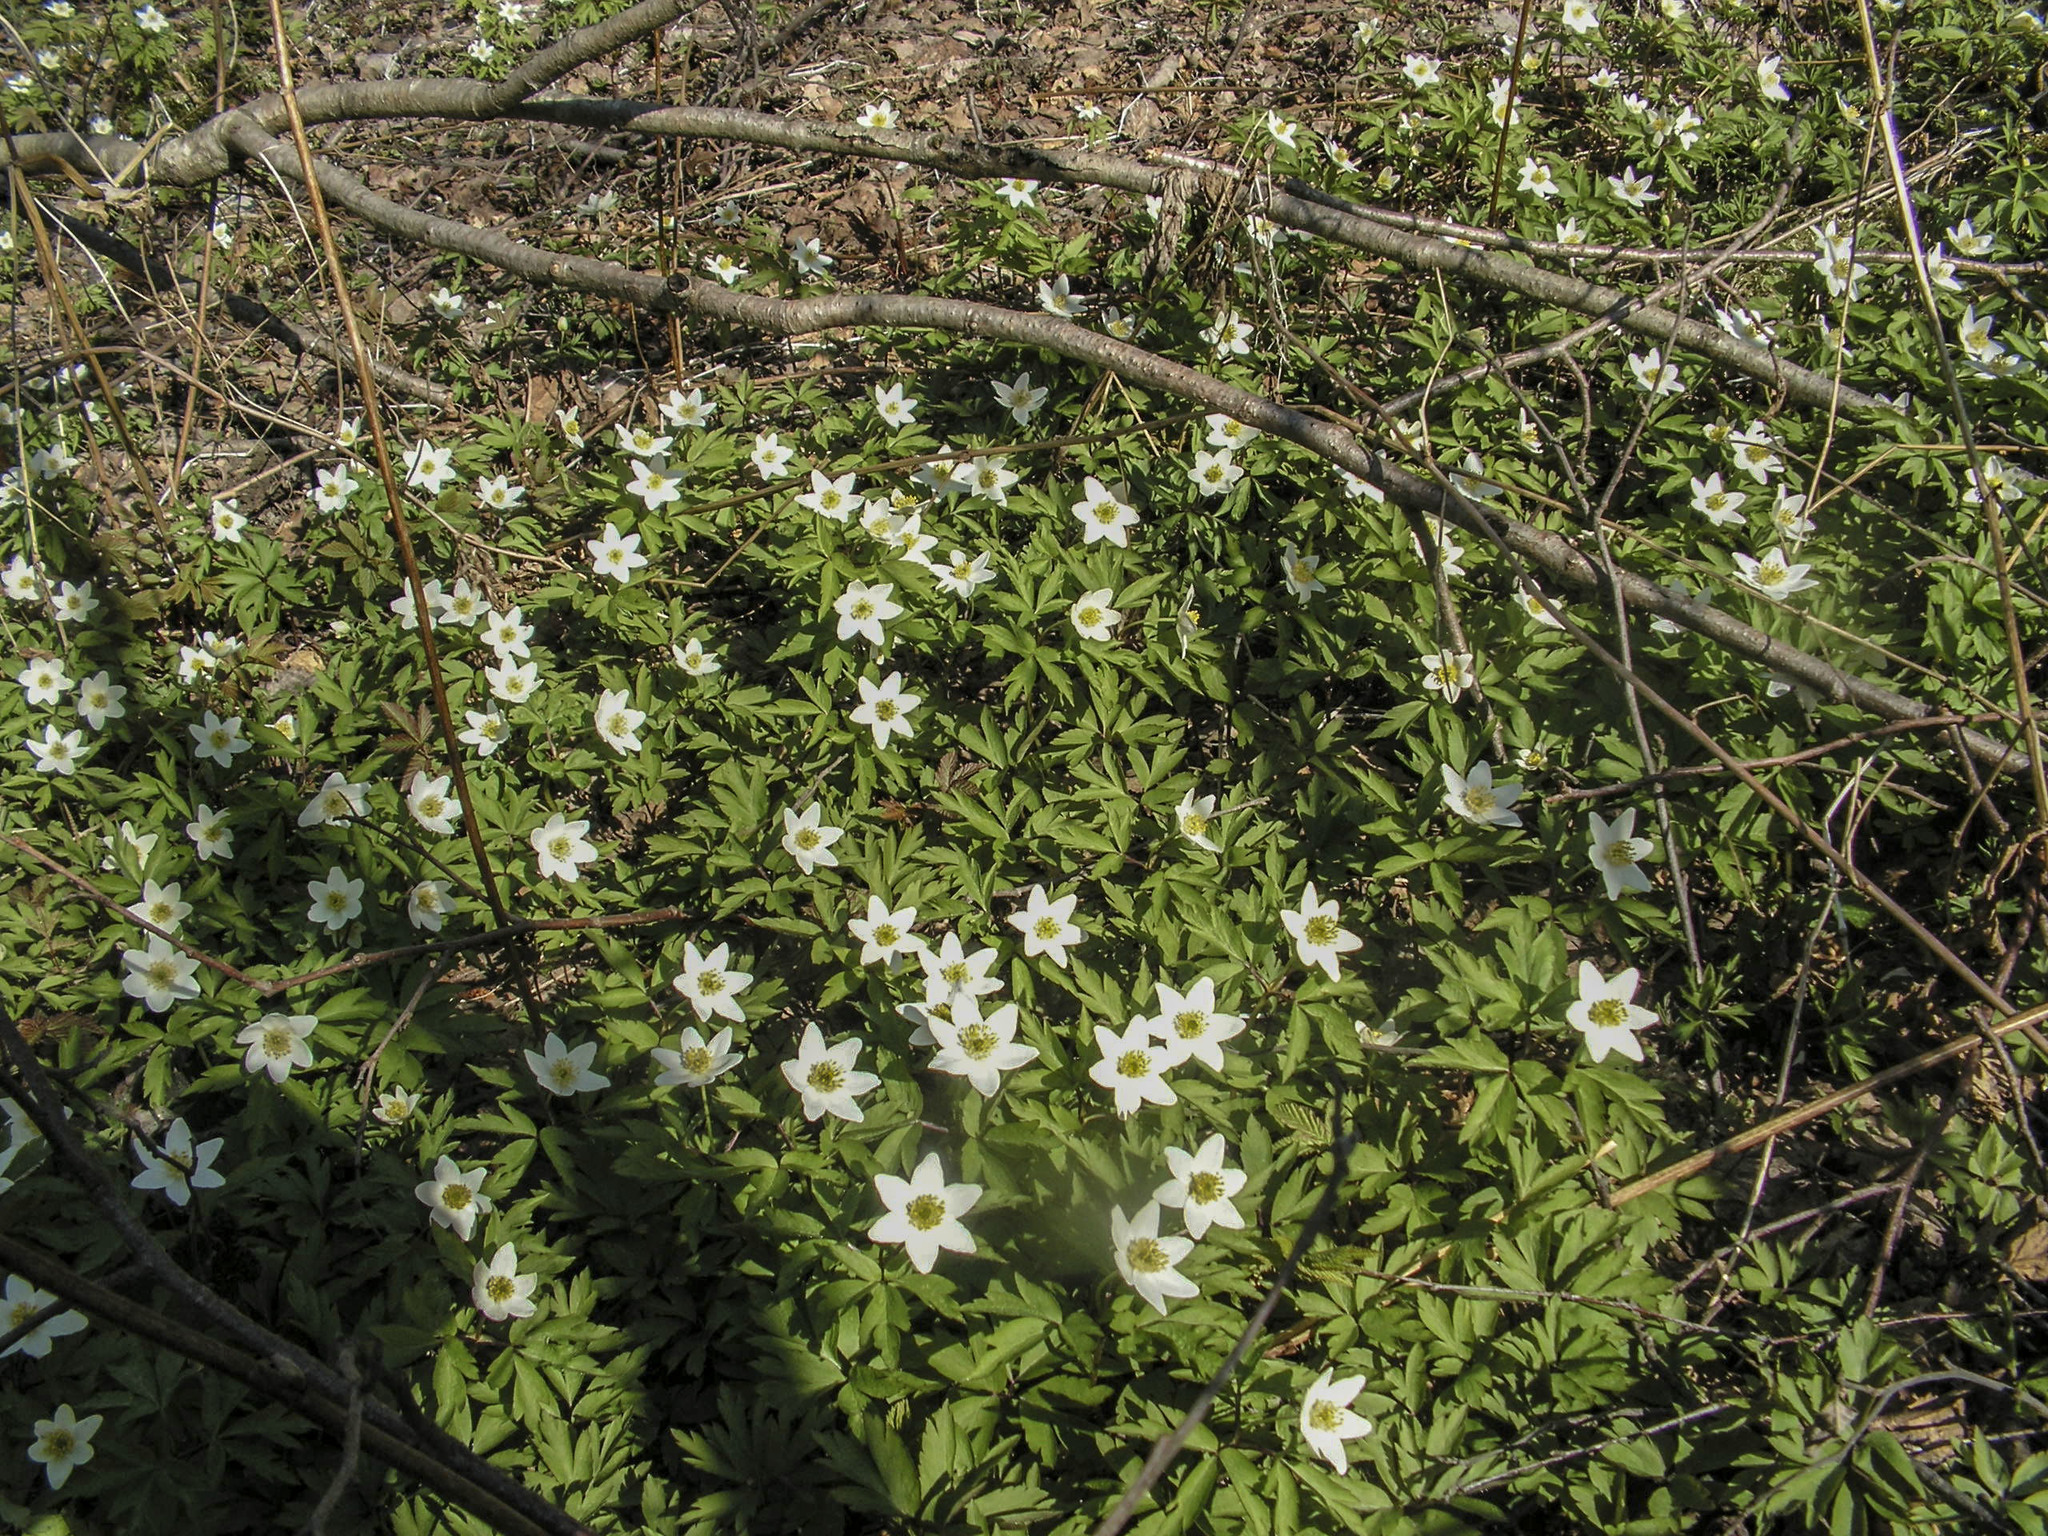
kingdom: Plantae
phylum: Tracheophyta
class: Magnoliopsida
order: Ranunculales
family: Ranunculaceae
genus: Anemone
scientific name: Anemone nemorosa
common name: Wood anemone
